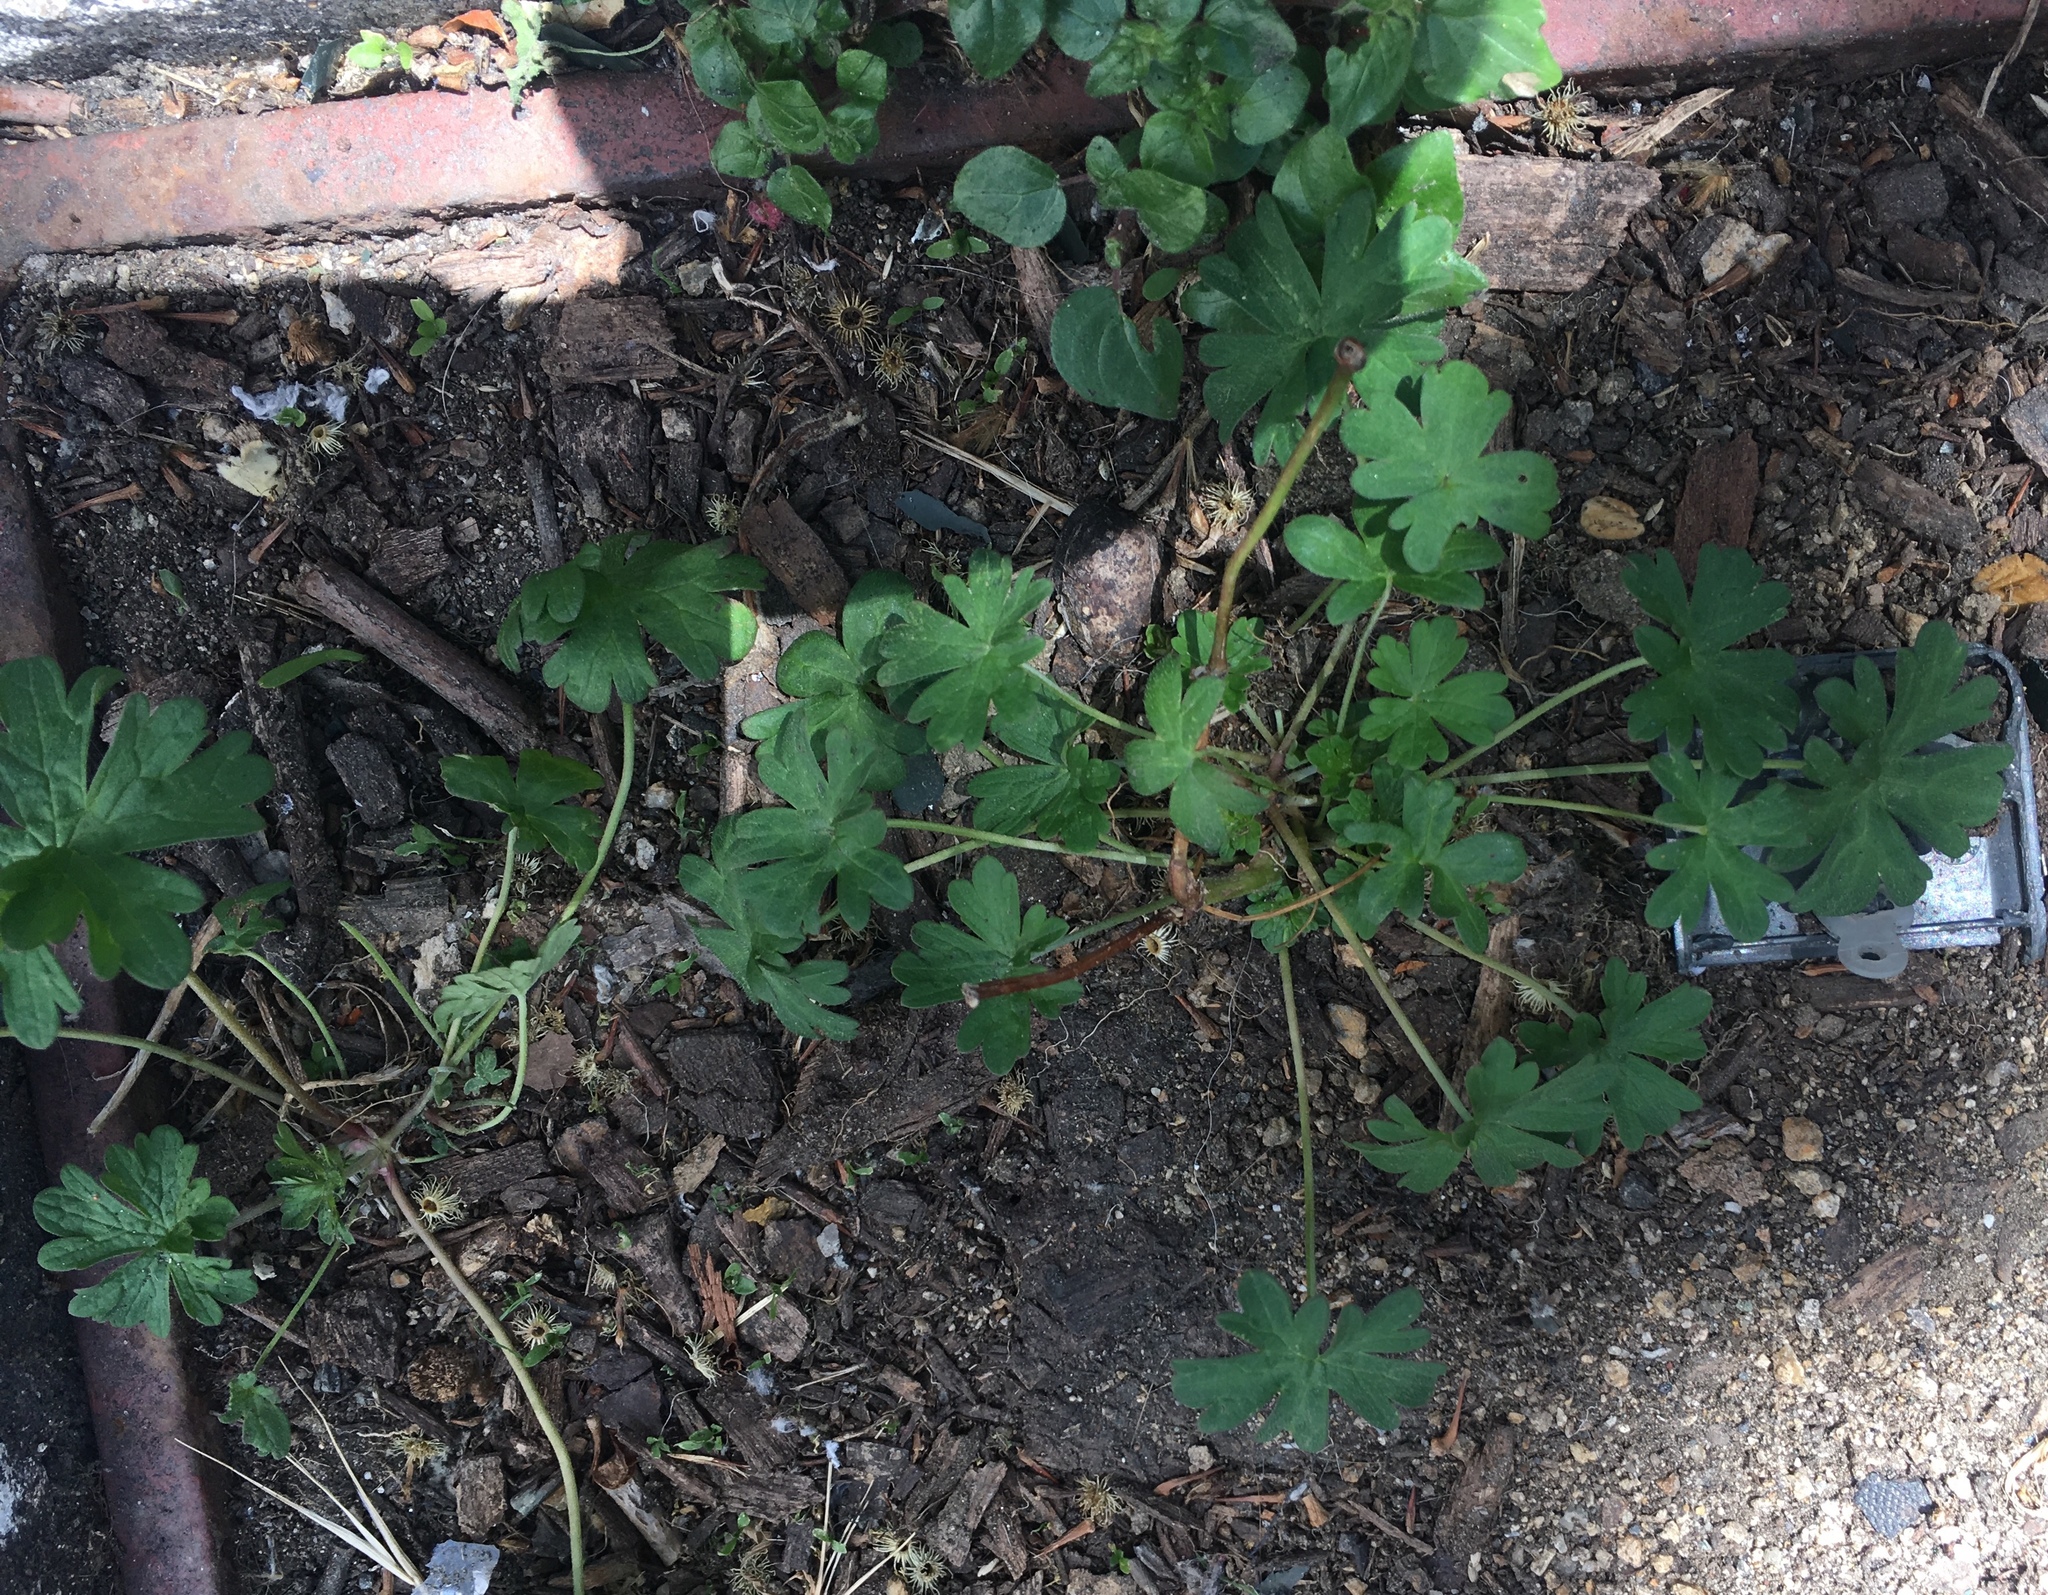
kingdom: Plantae
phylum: Tracheophyta
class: Magnoliopsida
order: Geraniales
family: Geraniaceae
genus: Geranium
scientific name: Geranium
